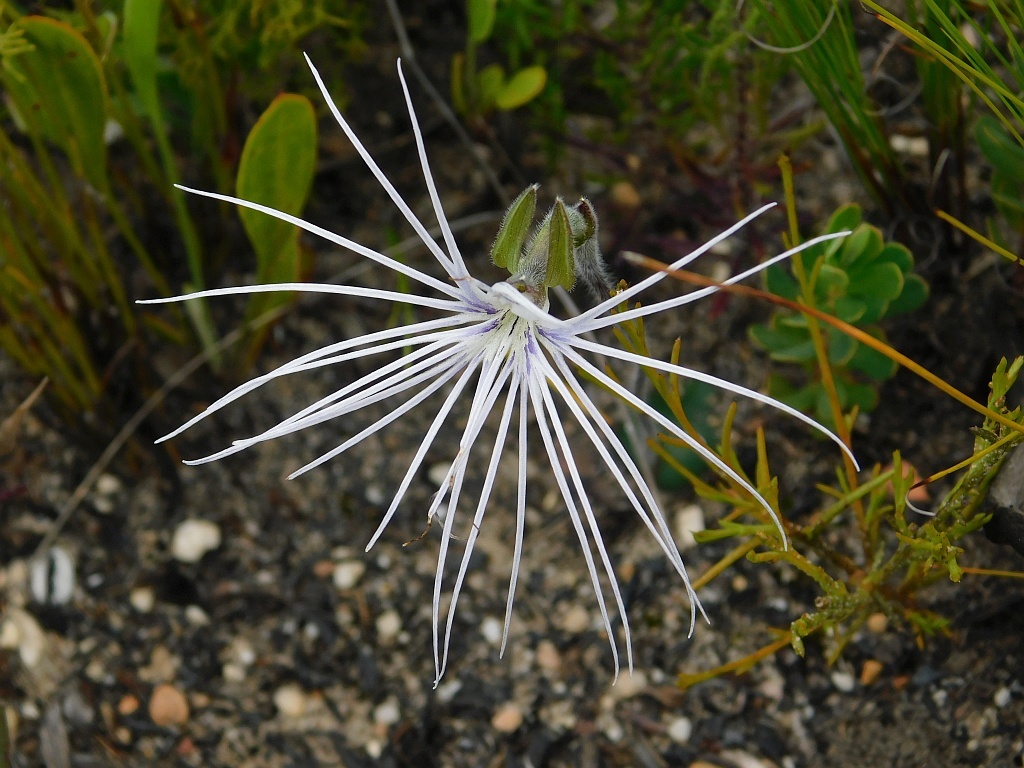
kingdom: Plantae
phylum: Tracheophyta
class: Liliopsida
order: Asparagales
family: Orchidaceae
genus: Holothrix
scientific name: Holothrix burmanniana
